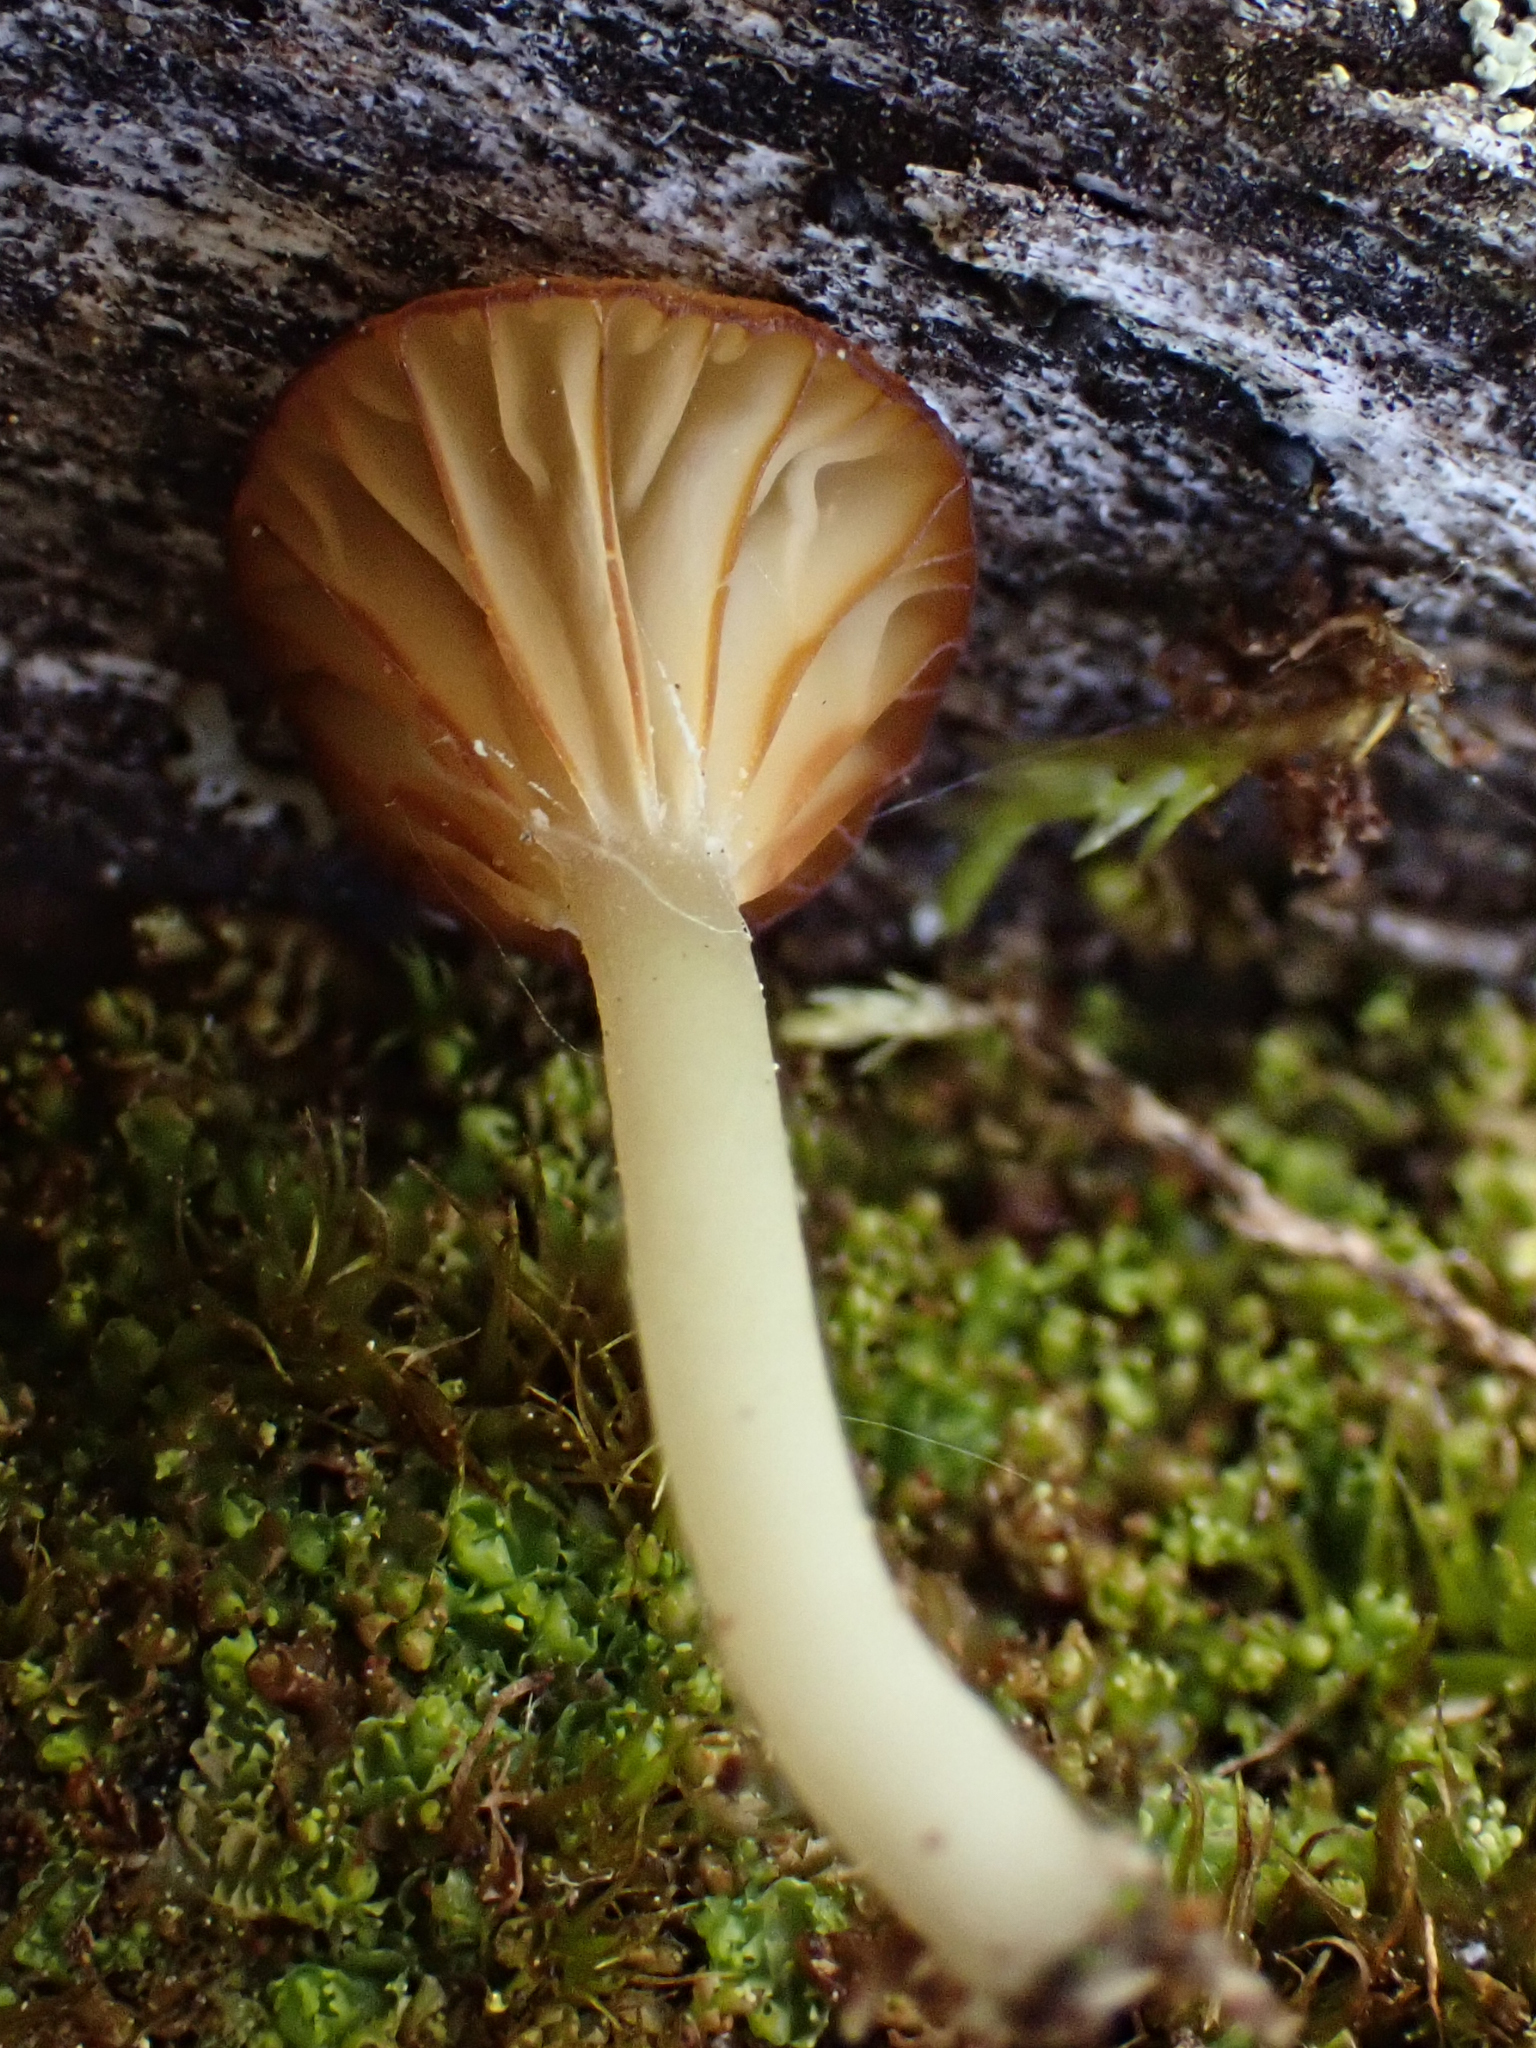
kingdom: Fungi
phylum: Basidiomycota
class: Agaricomycetes
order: Agaricales
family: Hygrophoraceae
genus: Lichenomphalia
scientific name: Lichenomphalia
